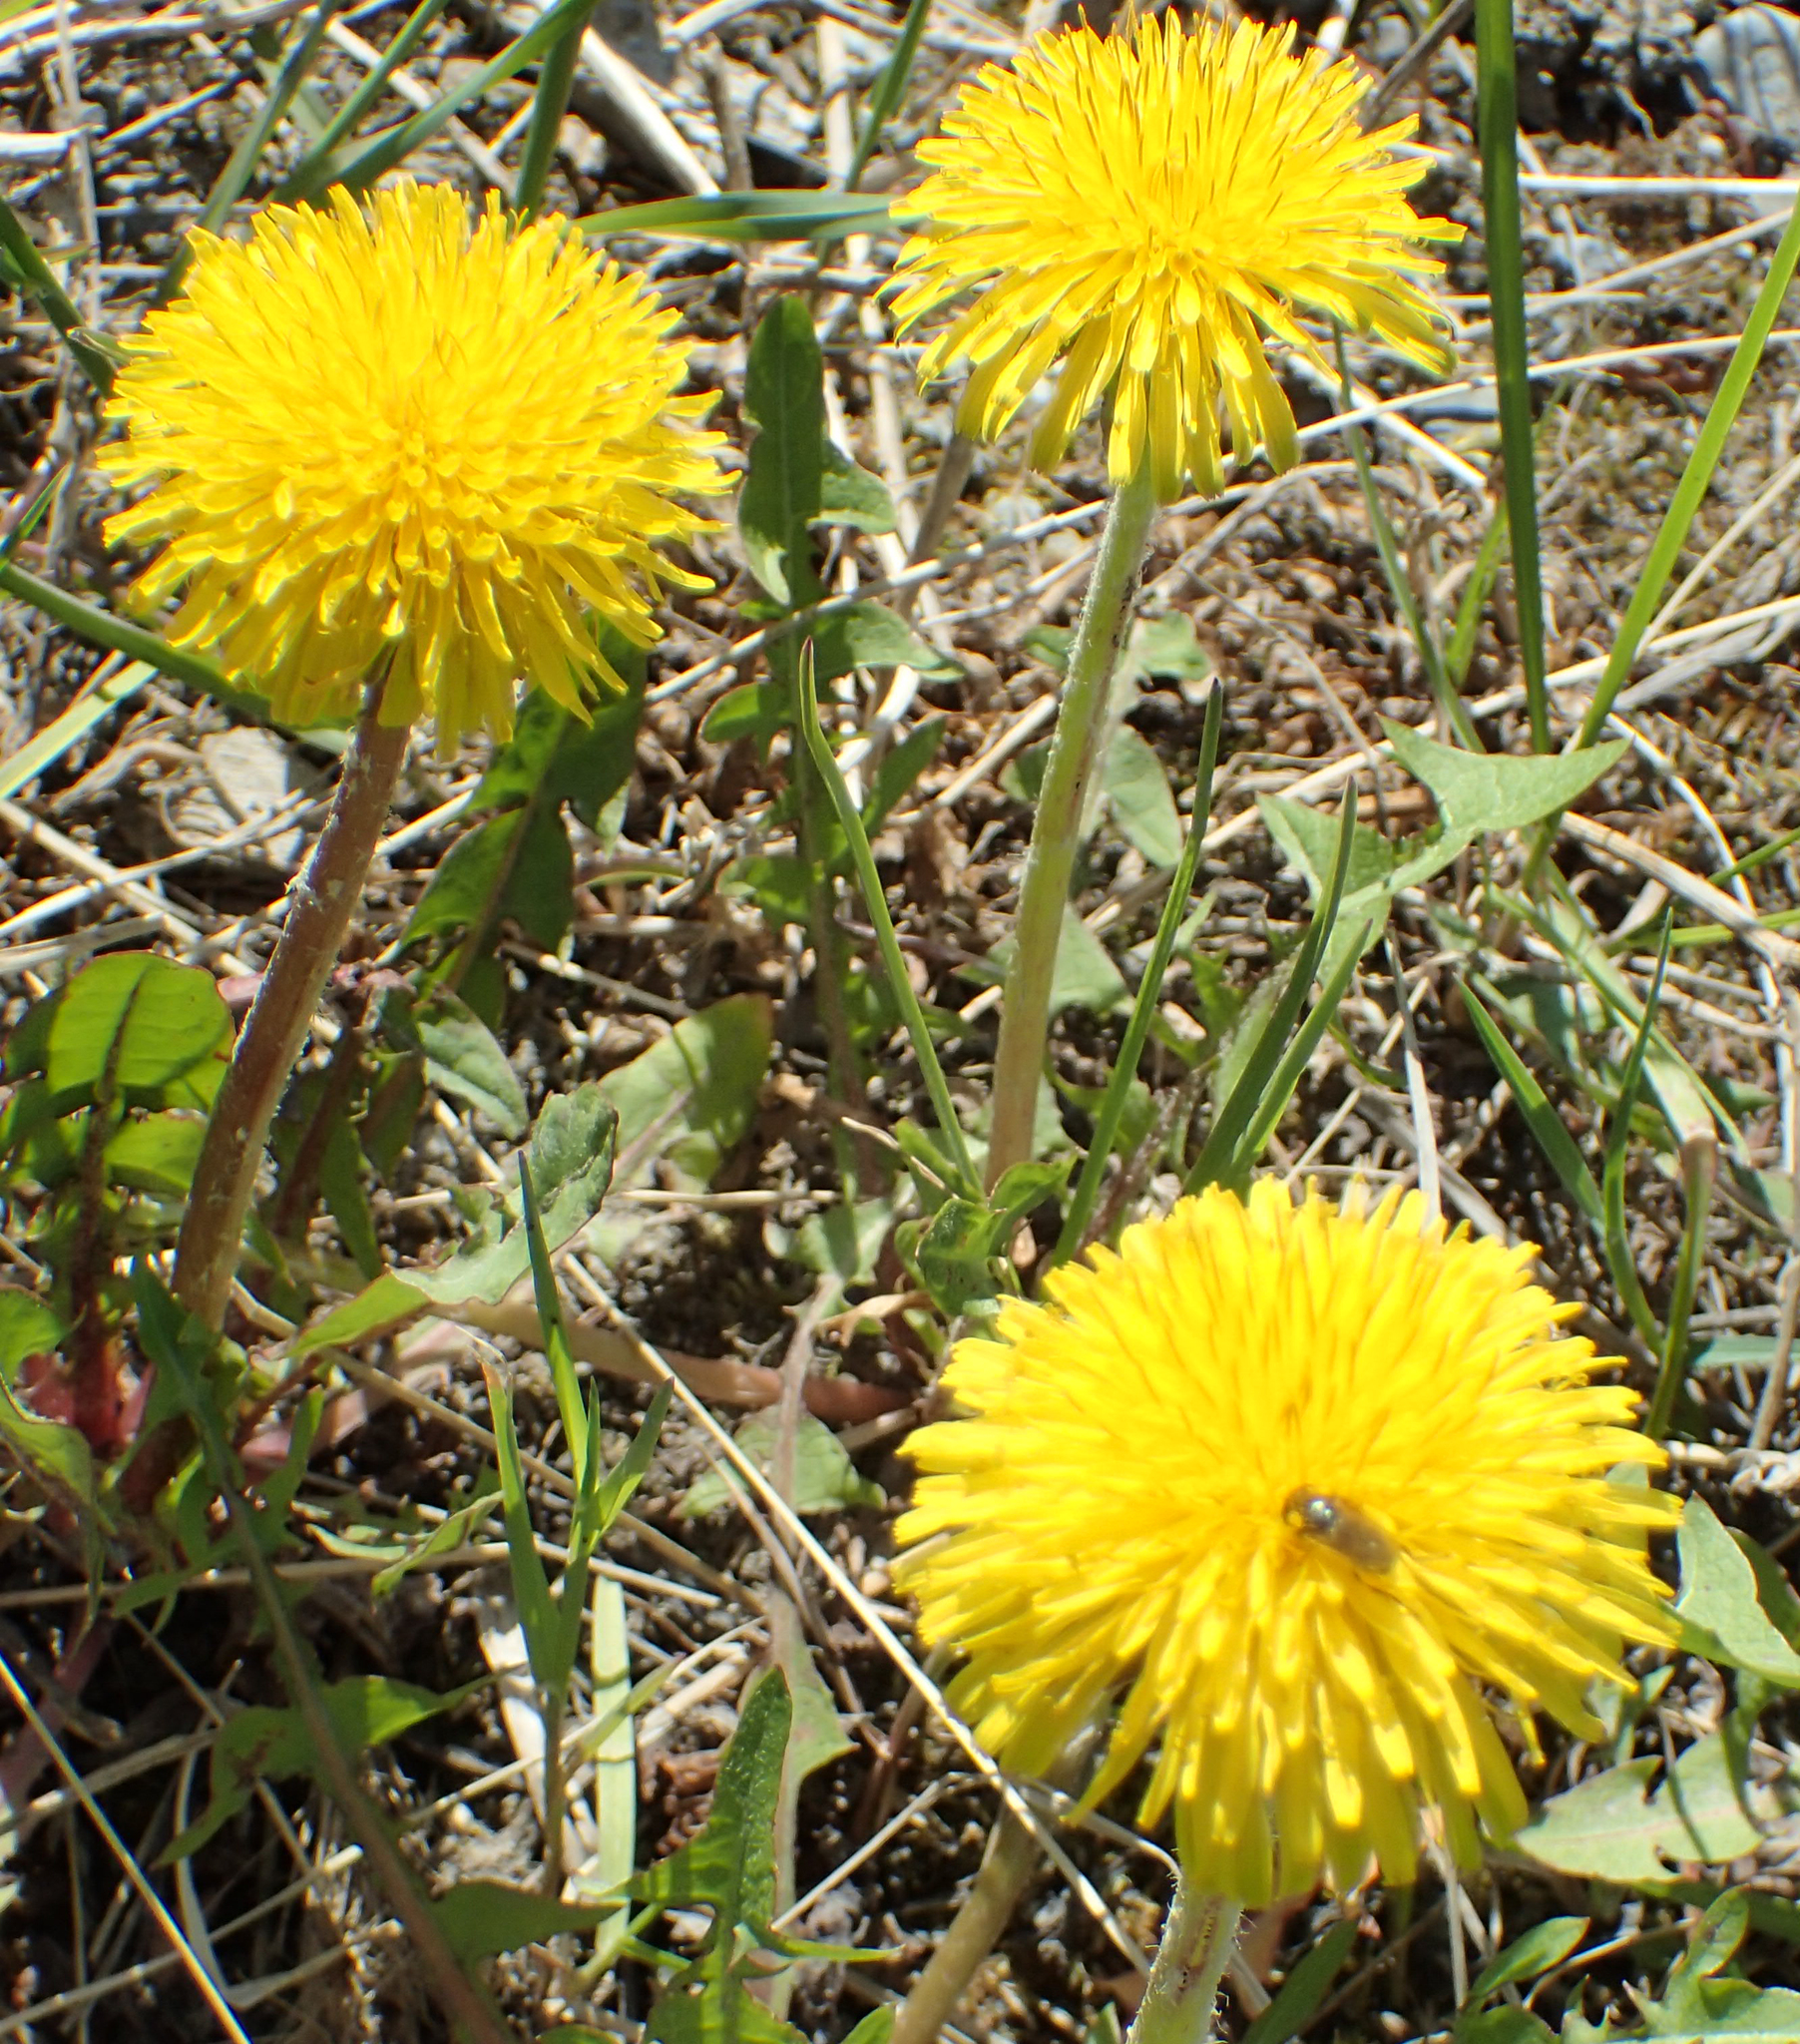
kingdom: Plantae
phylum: Tracheophyta
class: Magnoliopsida
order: Asterales
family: Asteraceae
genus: Taraxacum
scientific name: Taraxacum officinale
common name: Common dandelion
